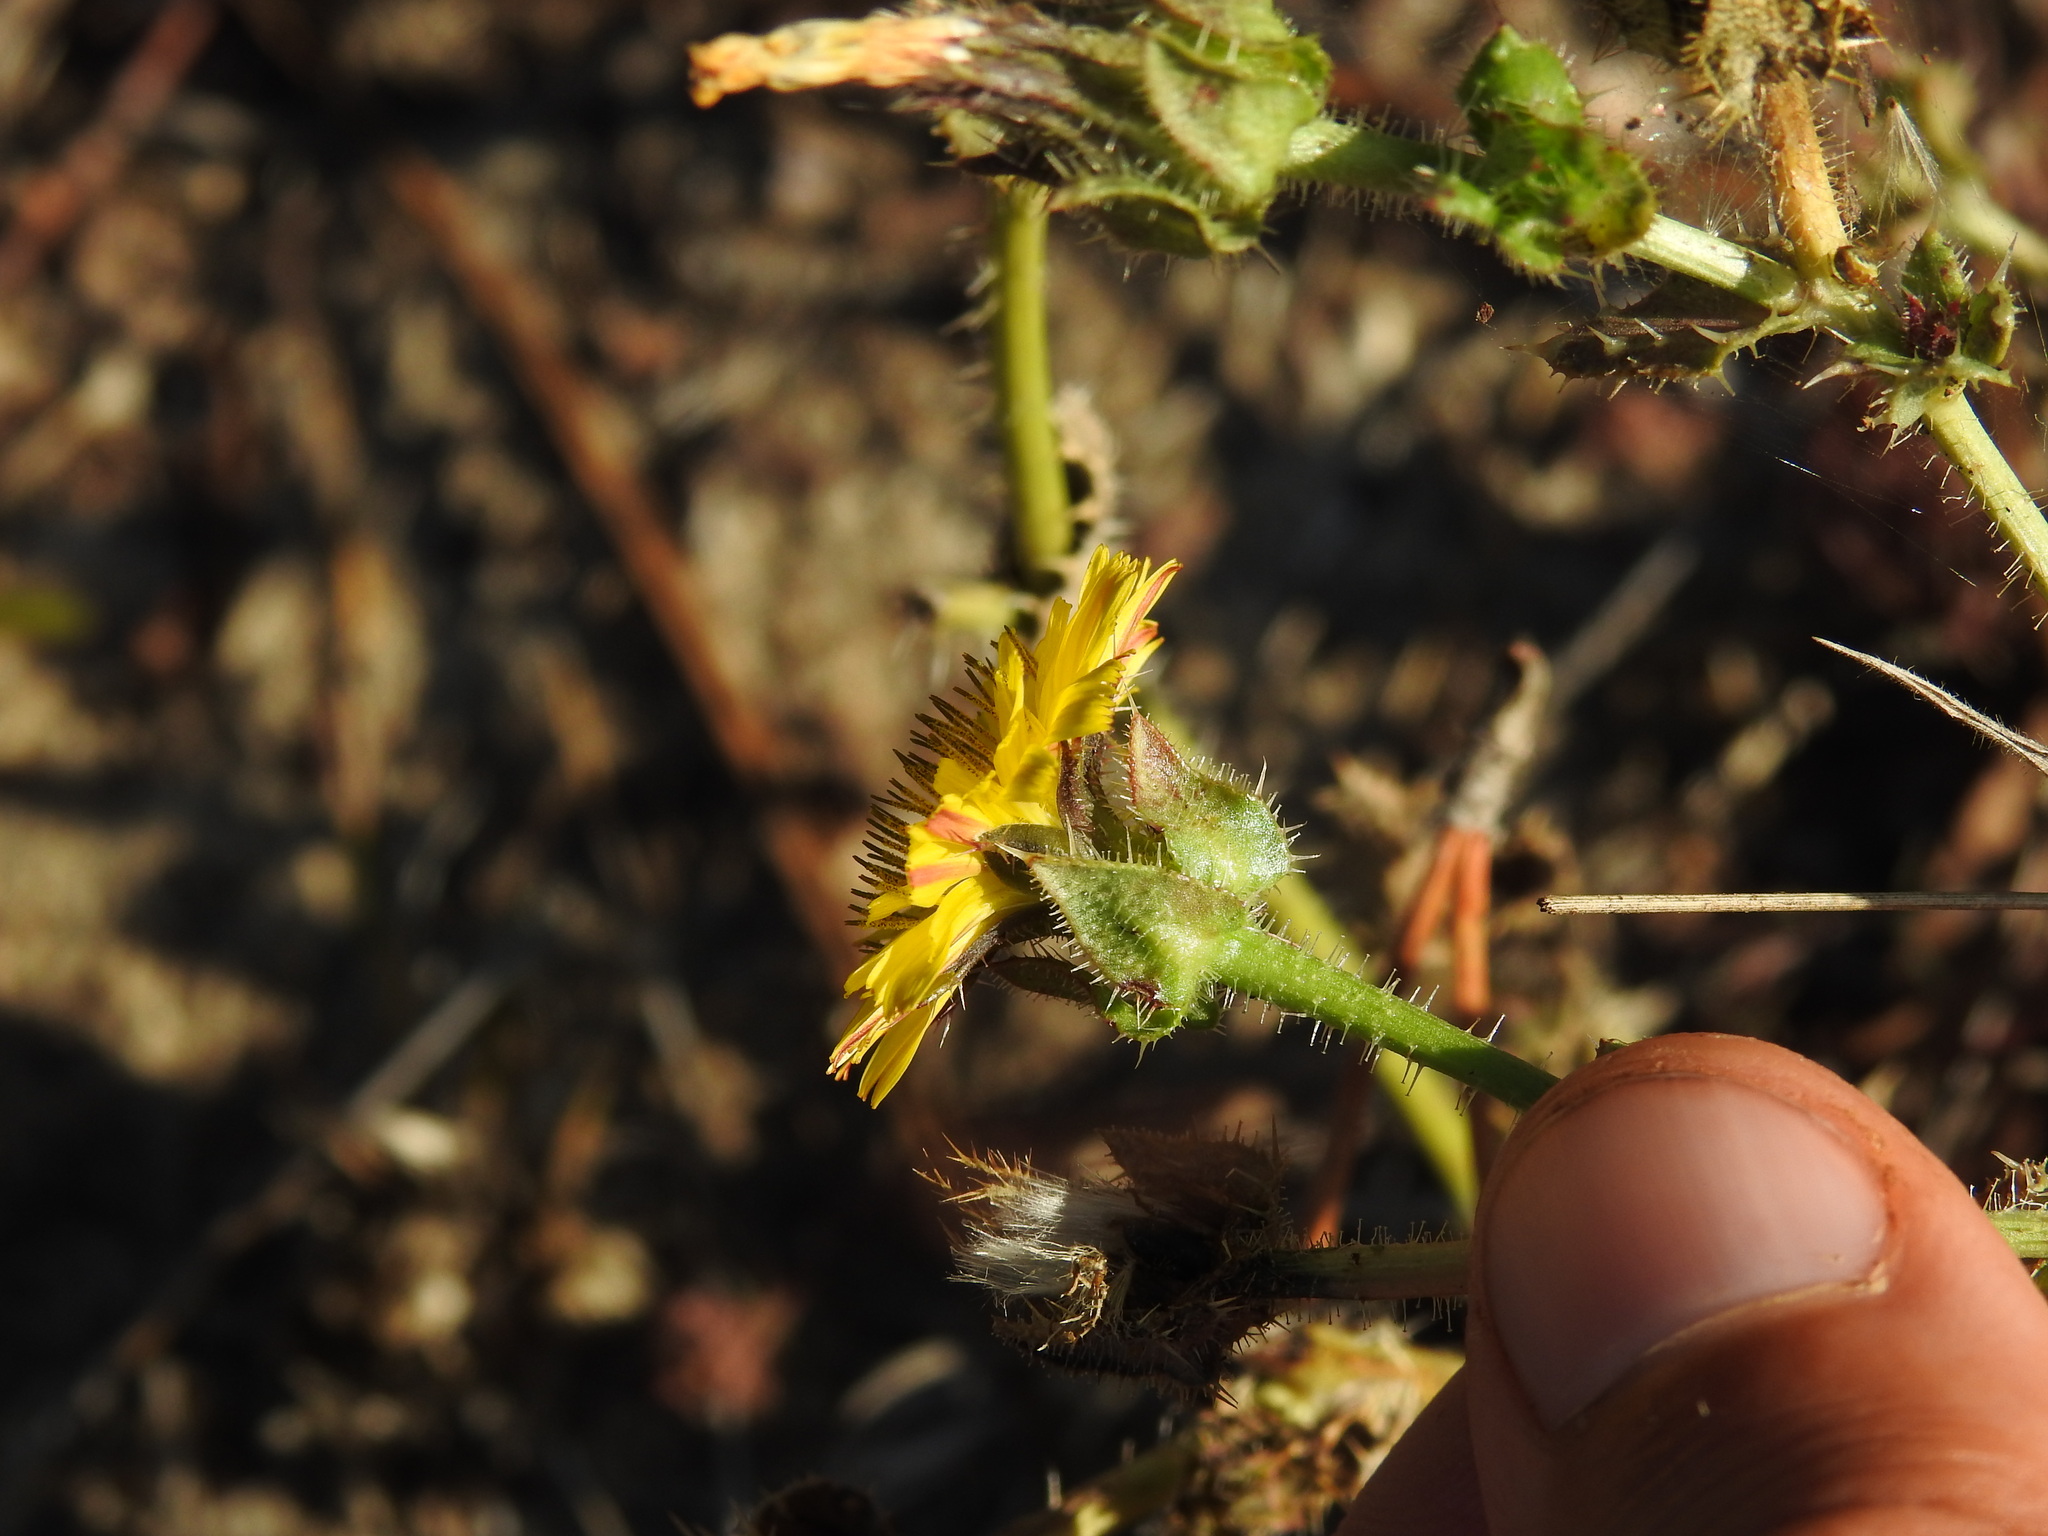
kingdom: Plantae
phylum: Tracheophyta
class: Magnoliopsida
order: Asterales
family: Asteraceae
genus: Helminthotheca
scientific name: Helminthotheca echioides
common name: Ox-tongue
